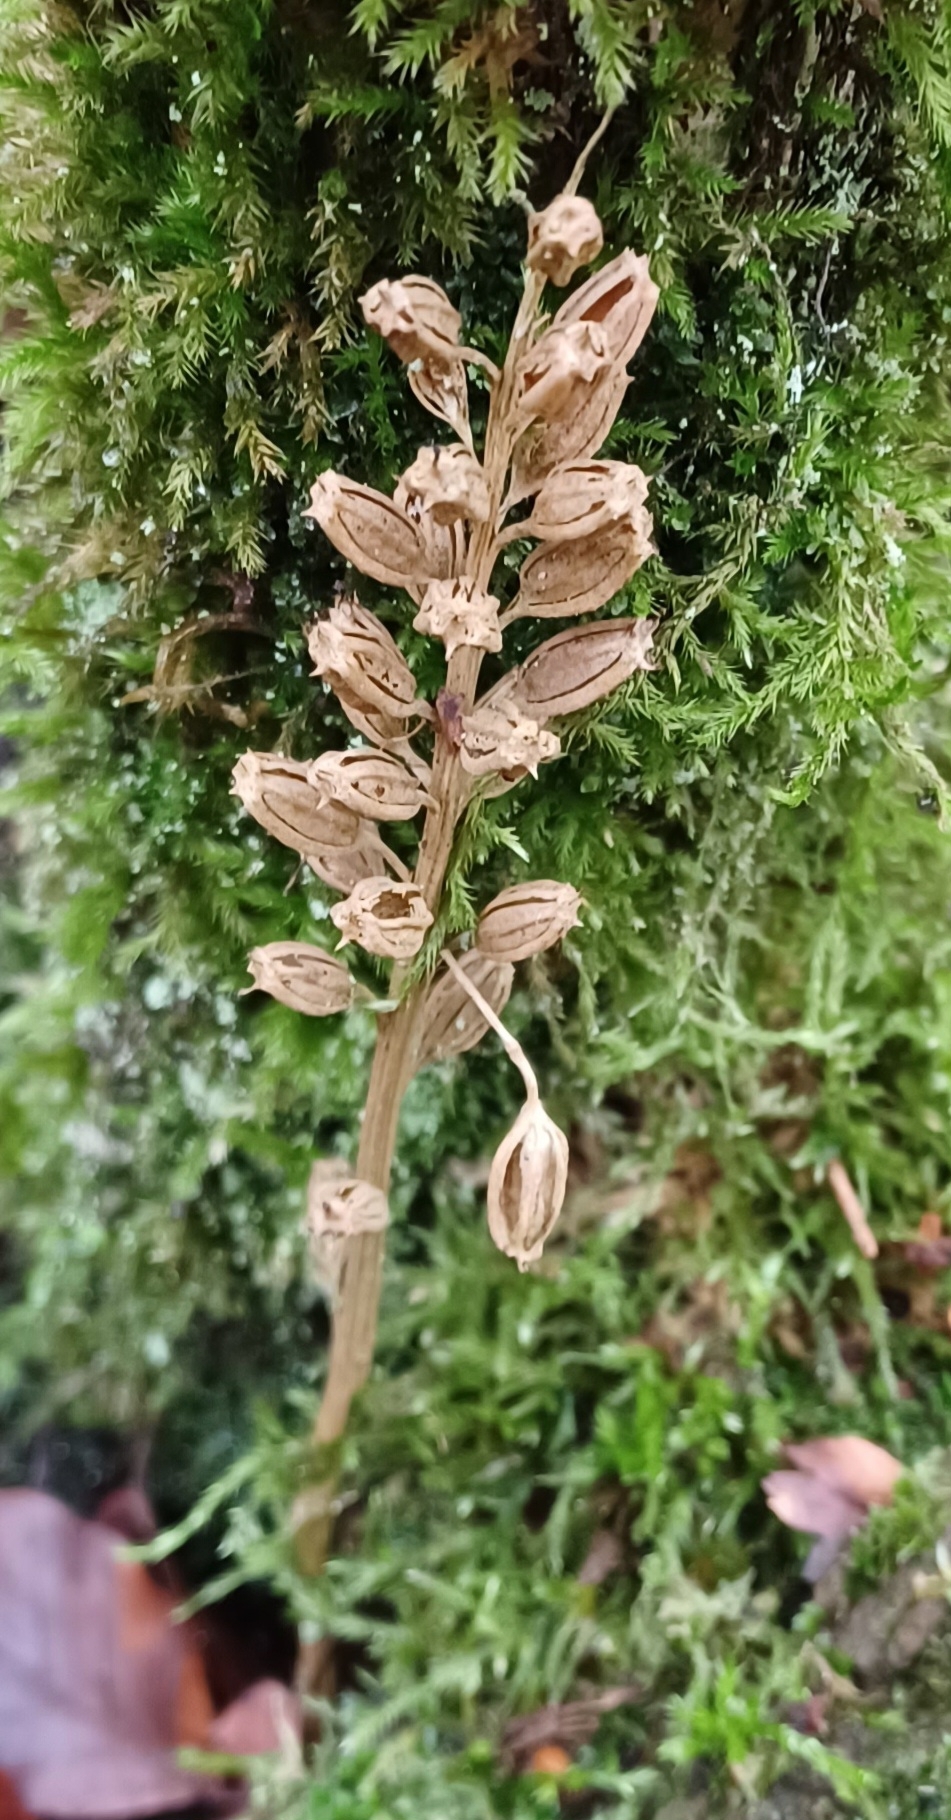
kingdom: Plantae
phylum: Tracheophyta
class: Liliopsida
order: Asparagales
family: Orchidaceae
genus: Neottia
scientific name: Neottia nidus-avis
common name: Bird's-nest orchid
